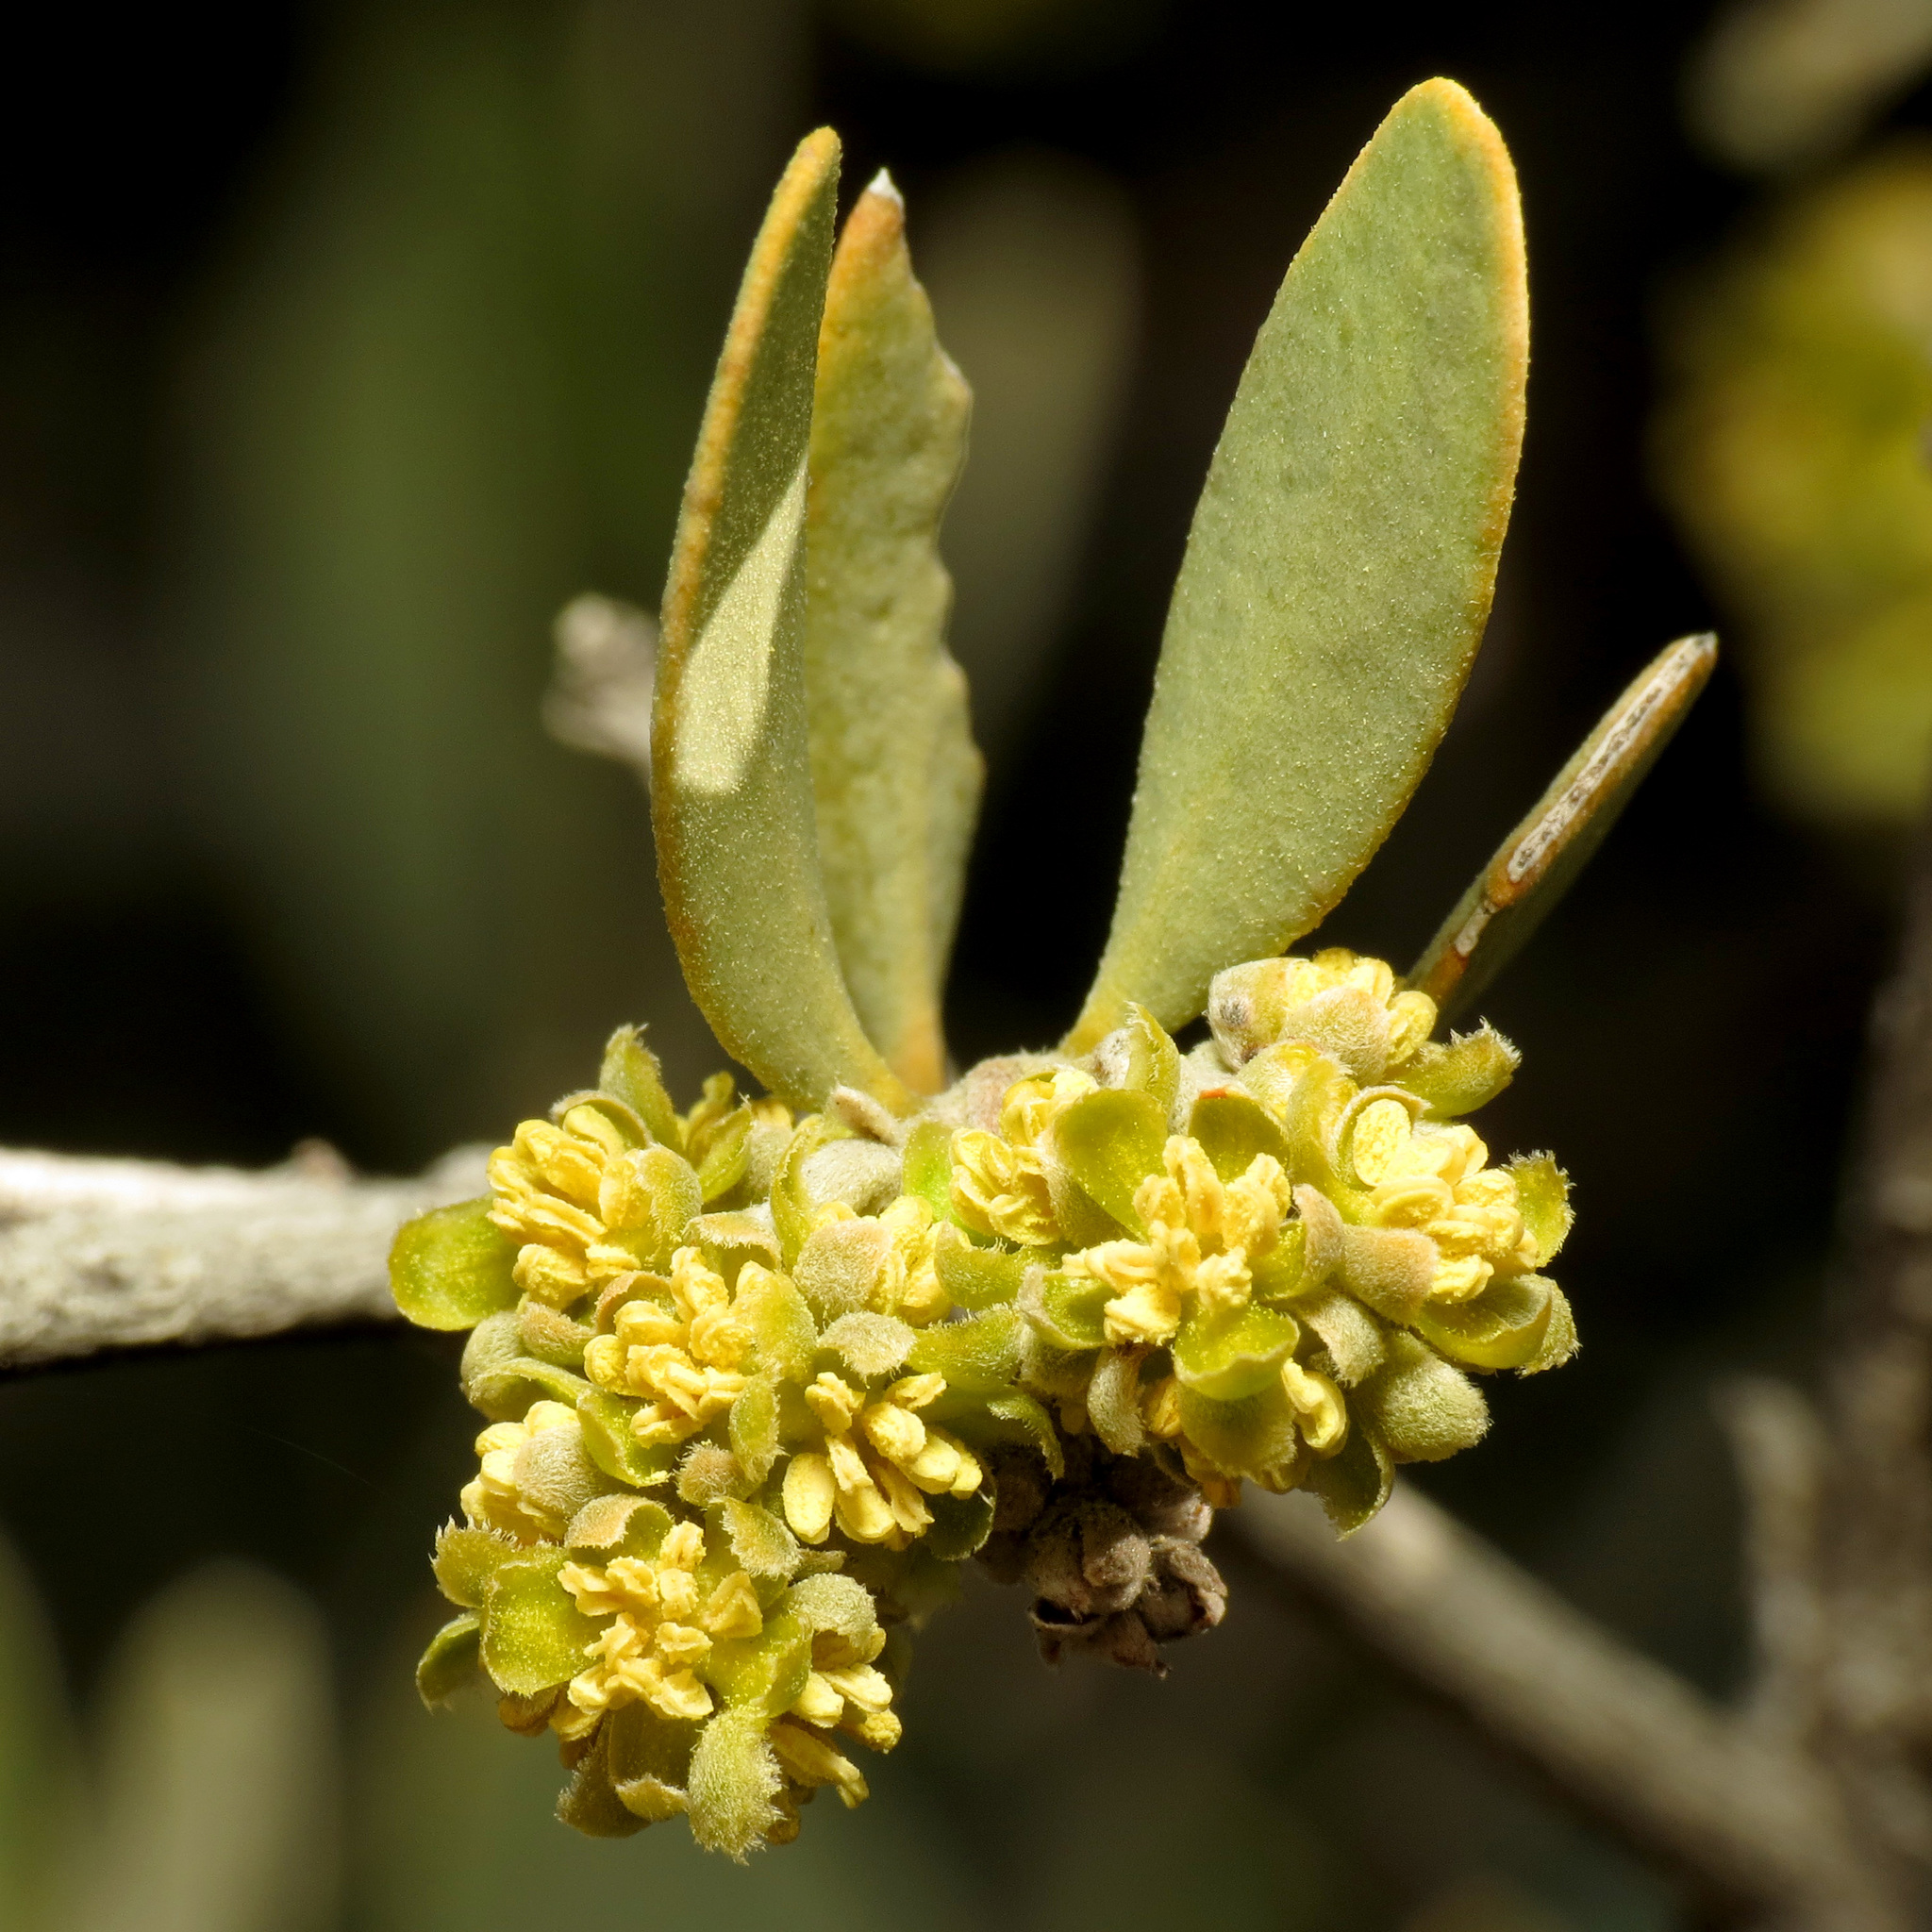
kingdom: Plantae
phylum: Tracheophyta
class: Magnoliopsida
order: Caryophyllales
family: Simmondsiaceae
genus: Simmondsia
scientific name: Simmondsia chinensis
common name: Jojoba
